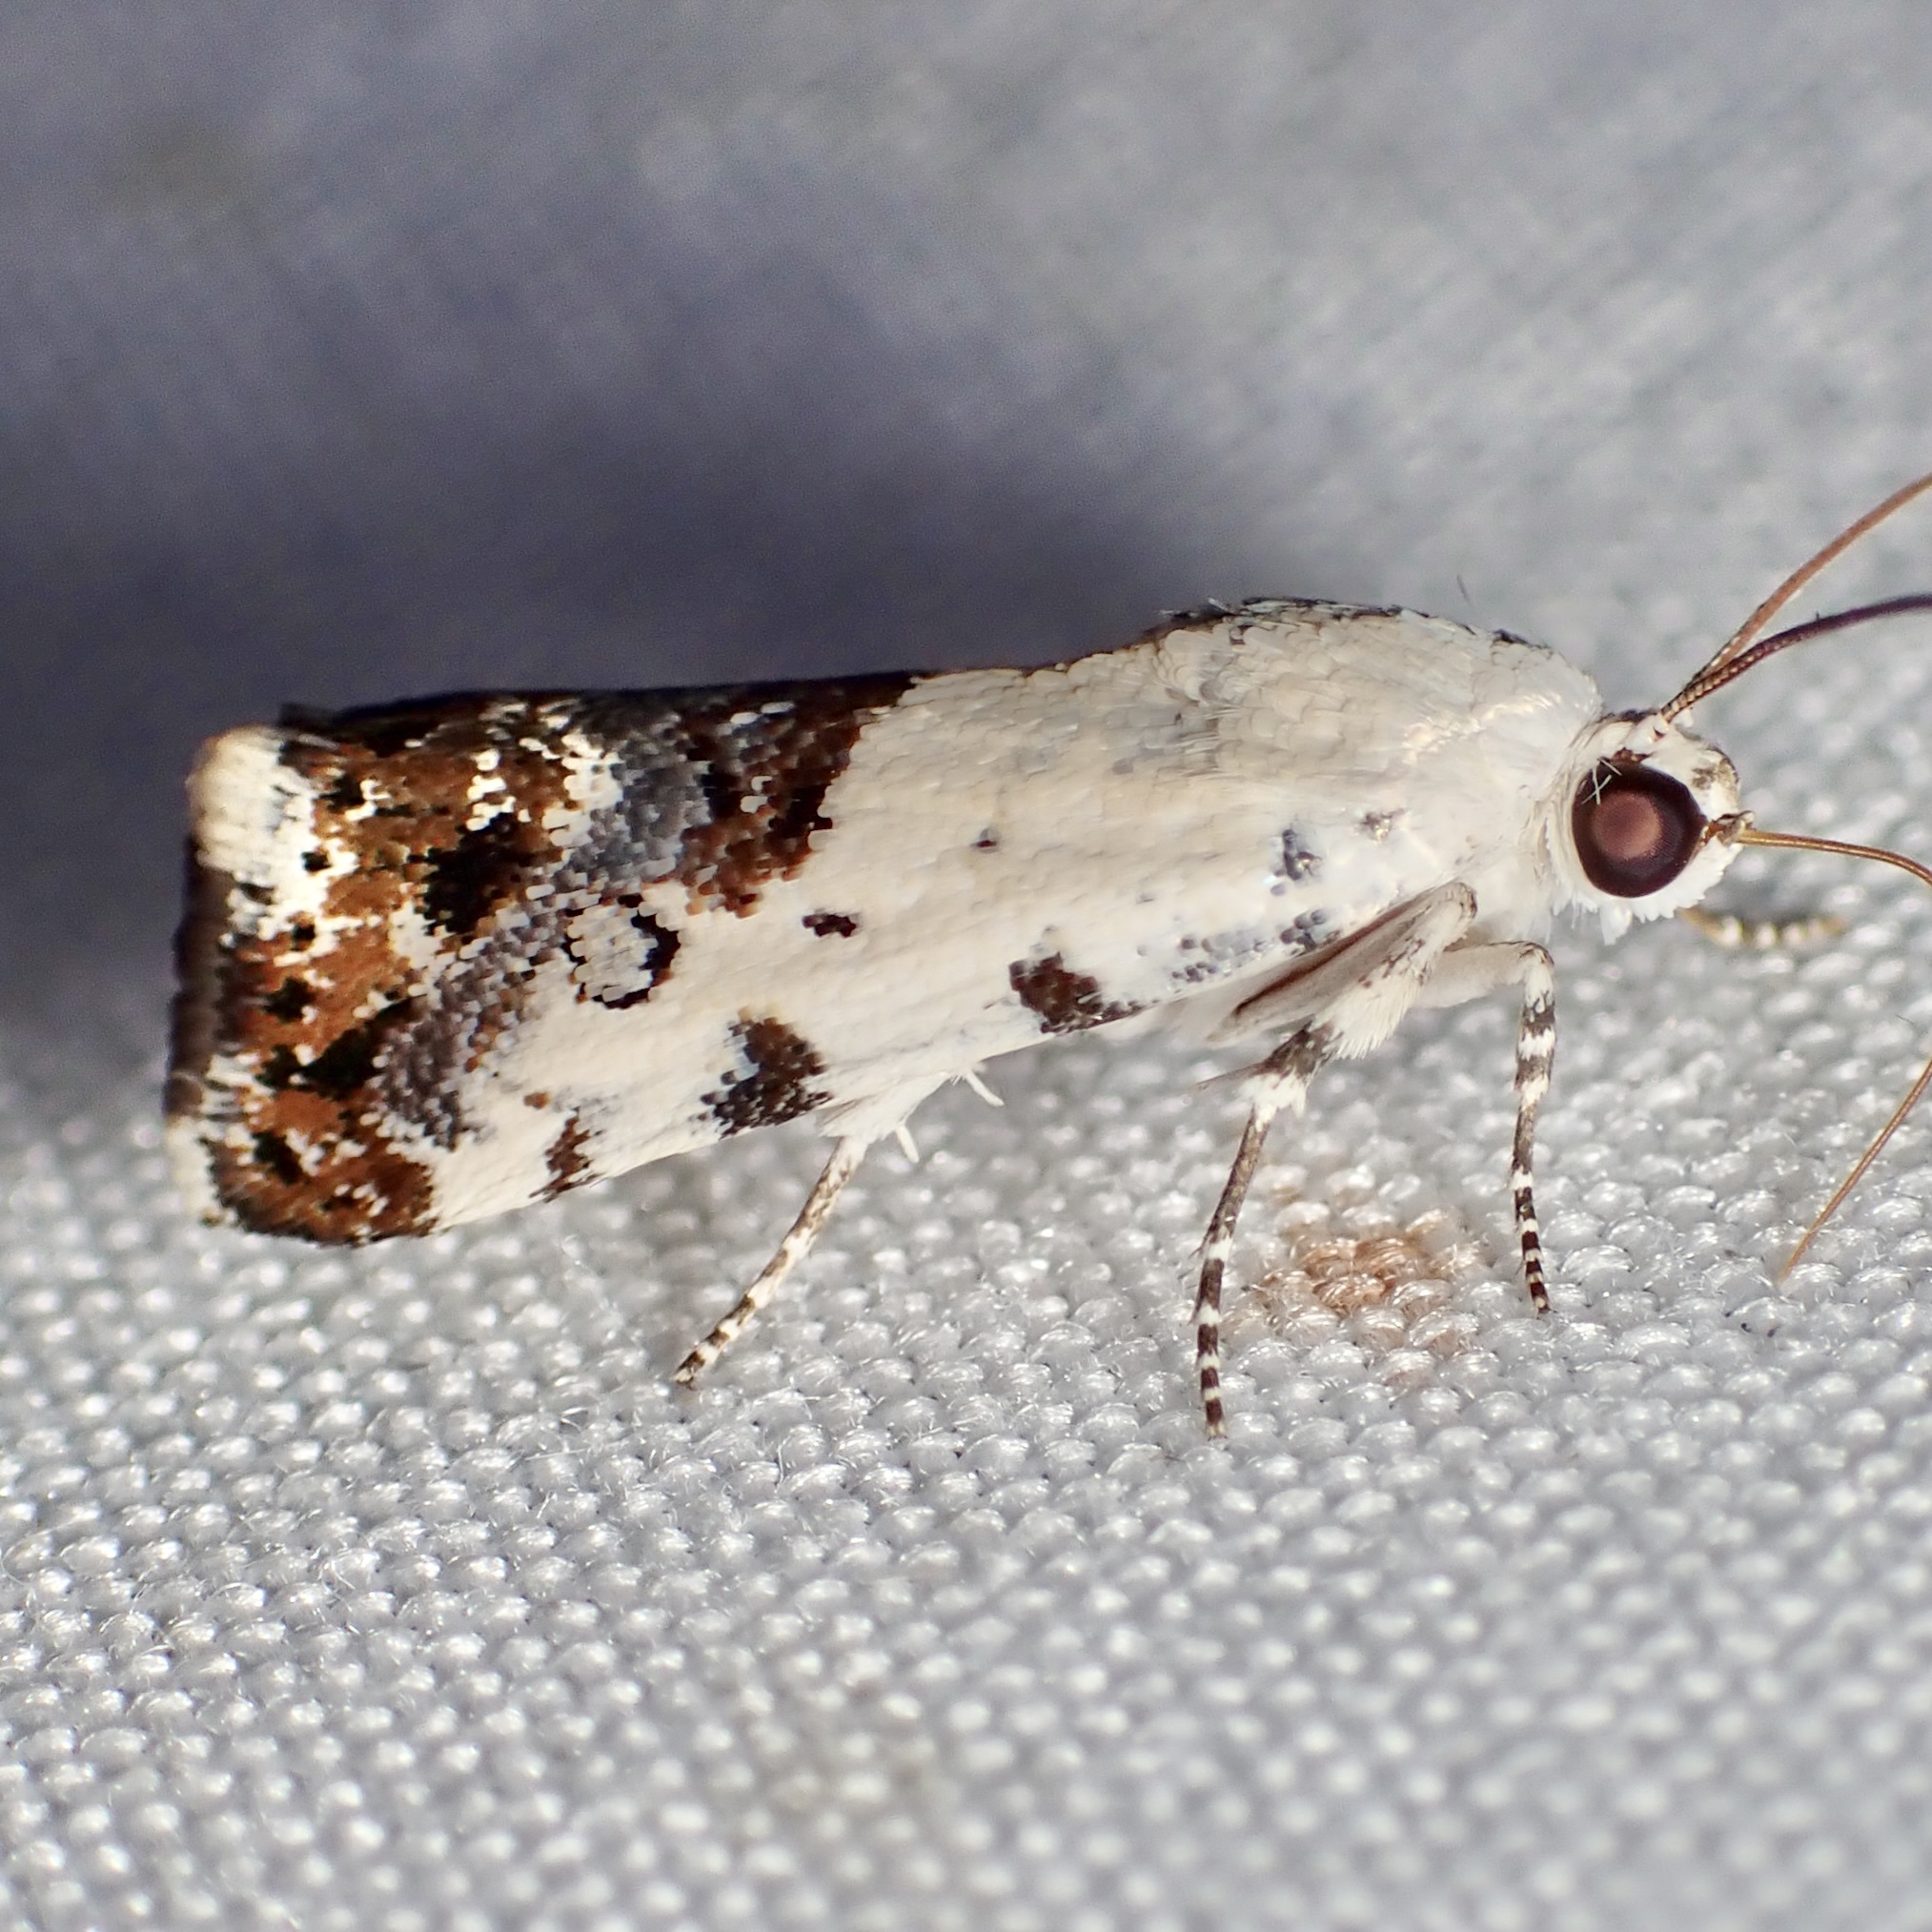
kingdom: Animalia
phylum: Arthropoda
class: Insecta
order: Lepidoptera
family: Noctuidae
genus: Acontia
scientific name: Acontia phecolisca
